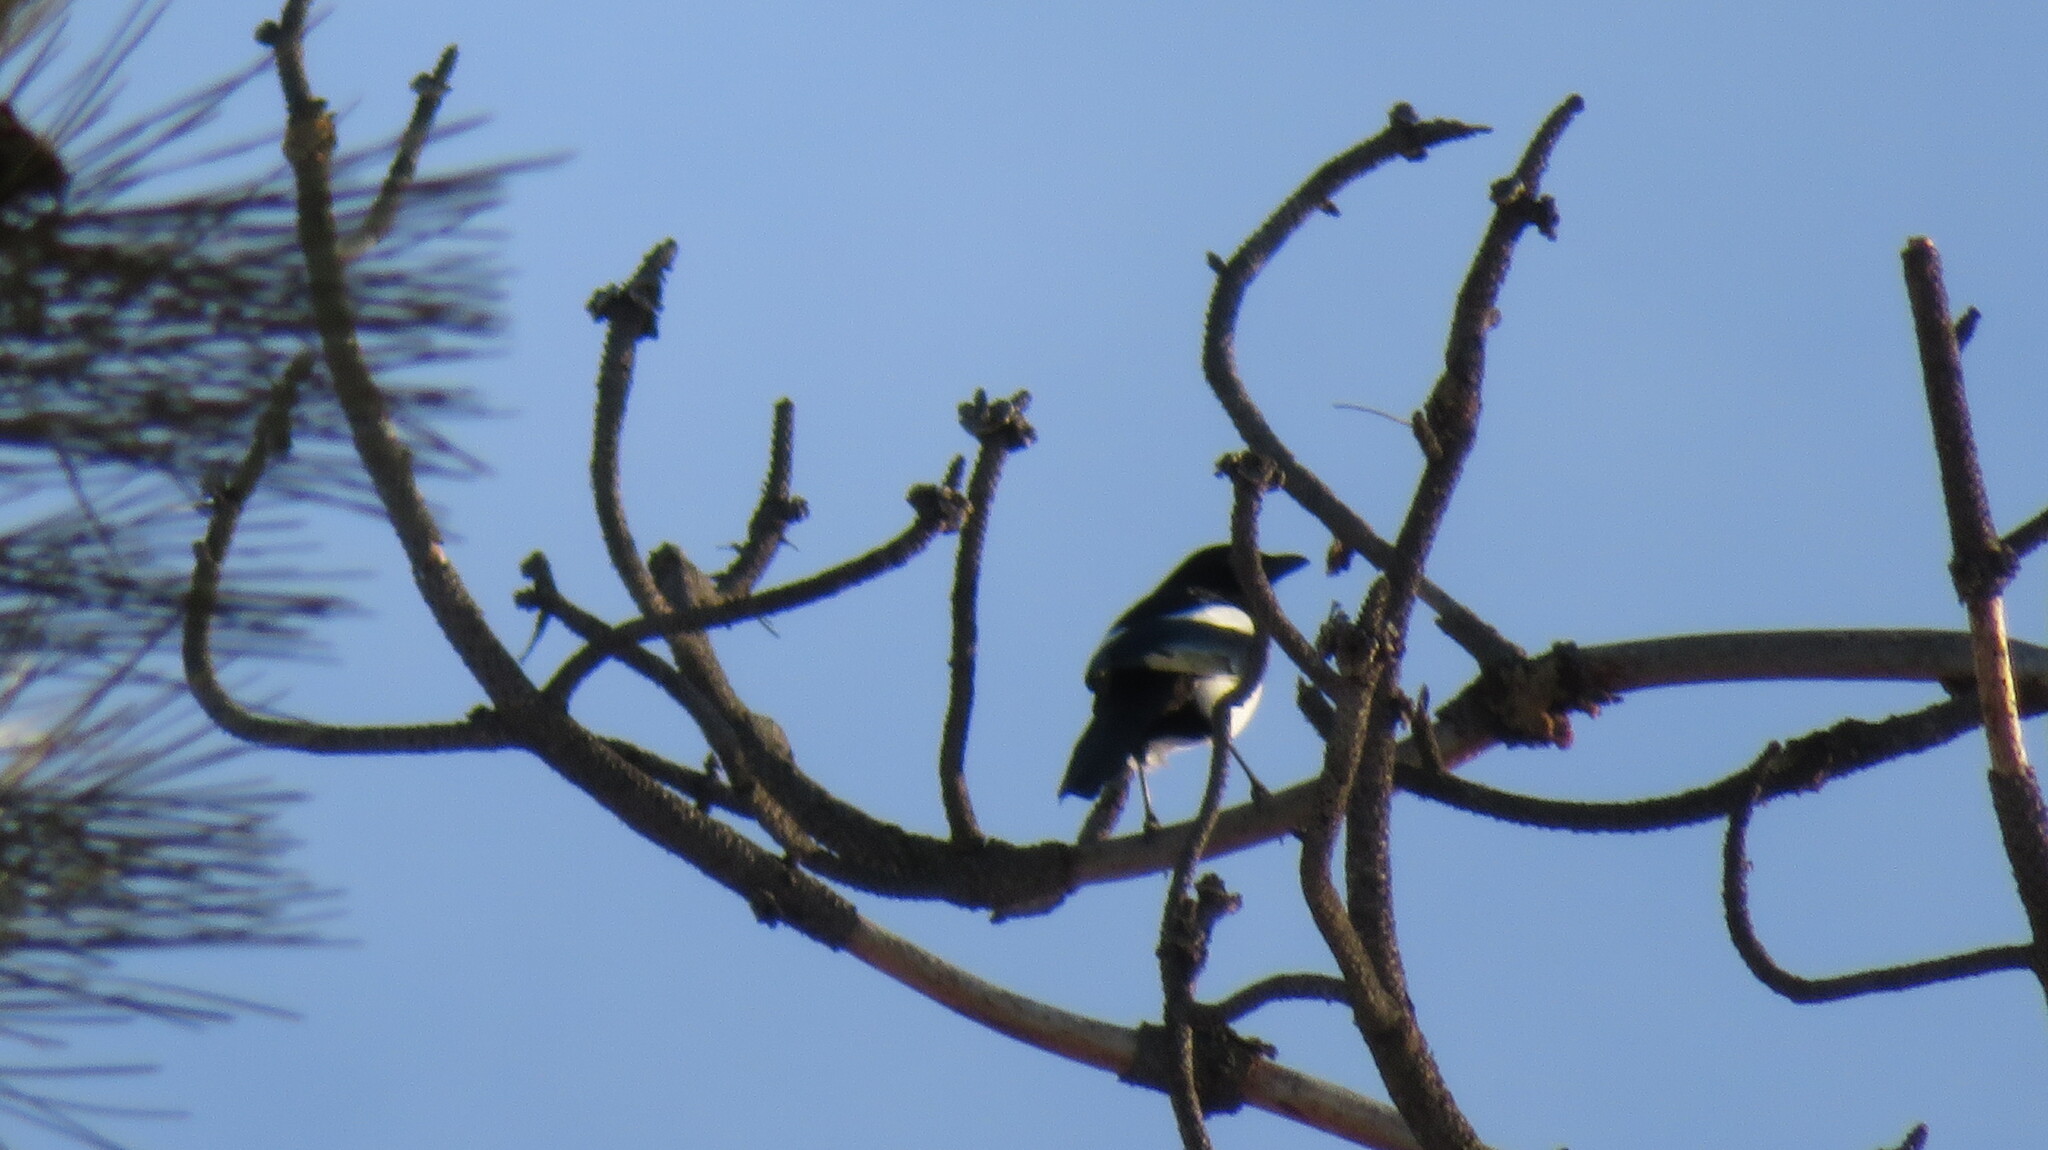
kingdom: Animalia
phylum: Chordata
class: Aves
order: Passeriformes
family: Corvidae
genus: Pica
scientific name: Pica hudsonia
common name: Black-billed magpie
